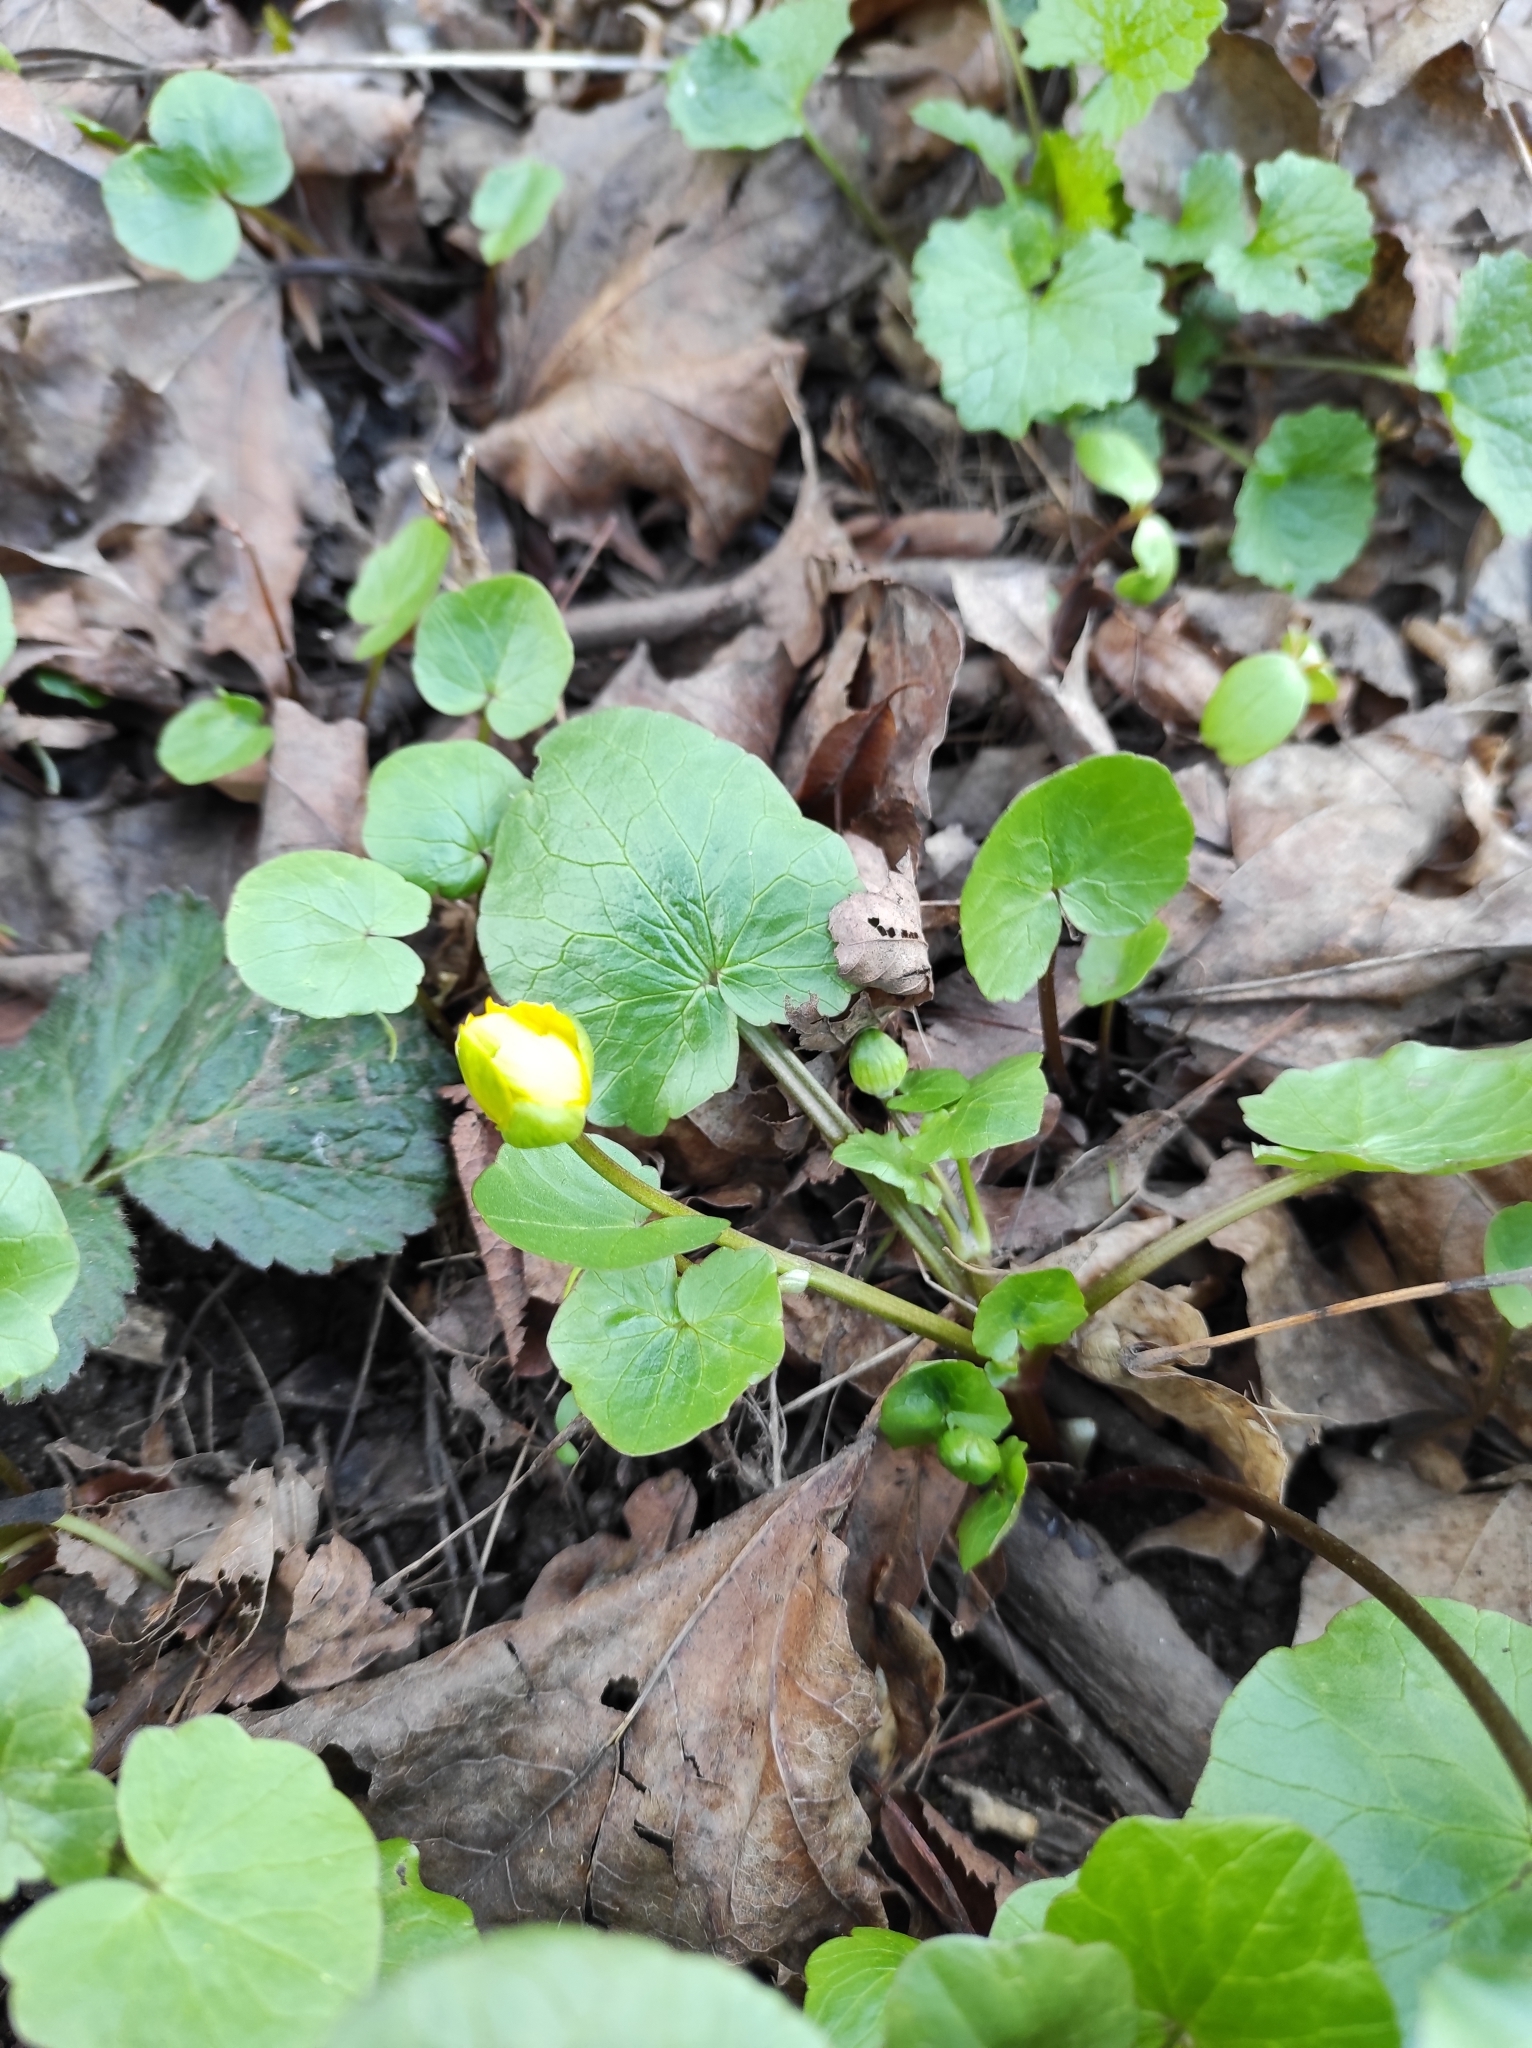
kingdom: Plantae
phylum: Tracheophyta
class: Magnoliopsida
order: Ranunculales
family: Ranunculaceae
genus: Ficaria
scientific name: Ficaria verna
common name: Lesser celandine
